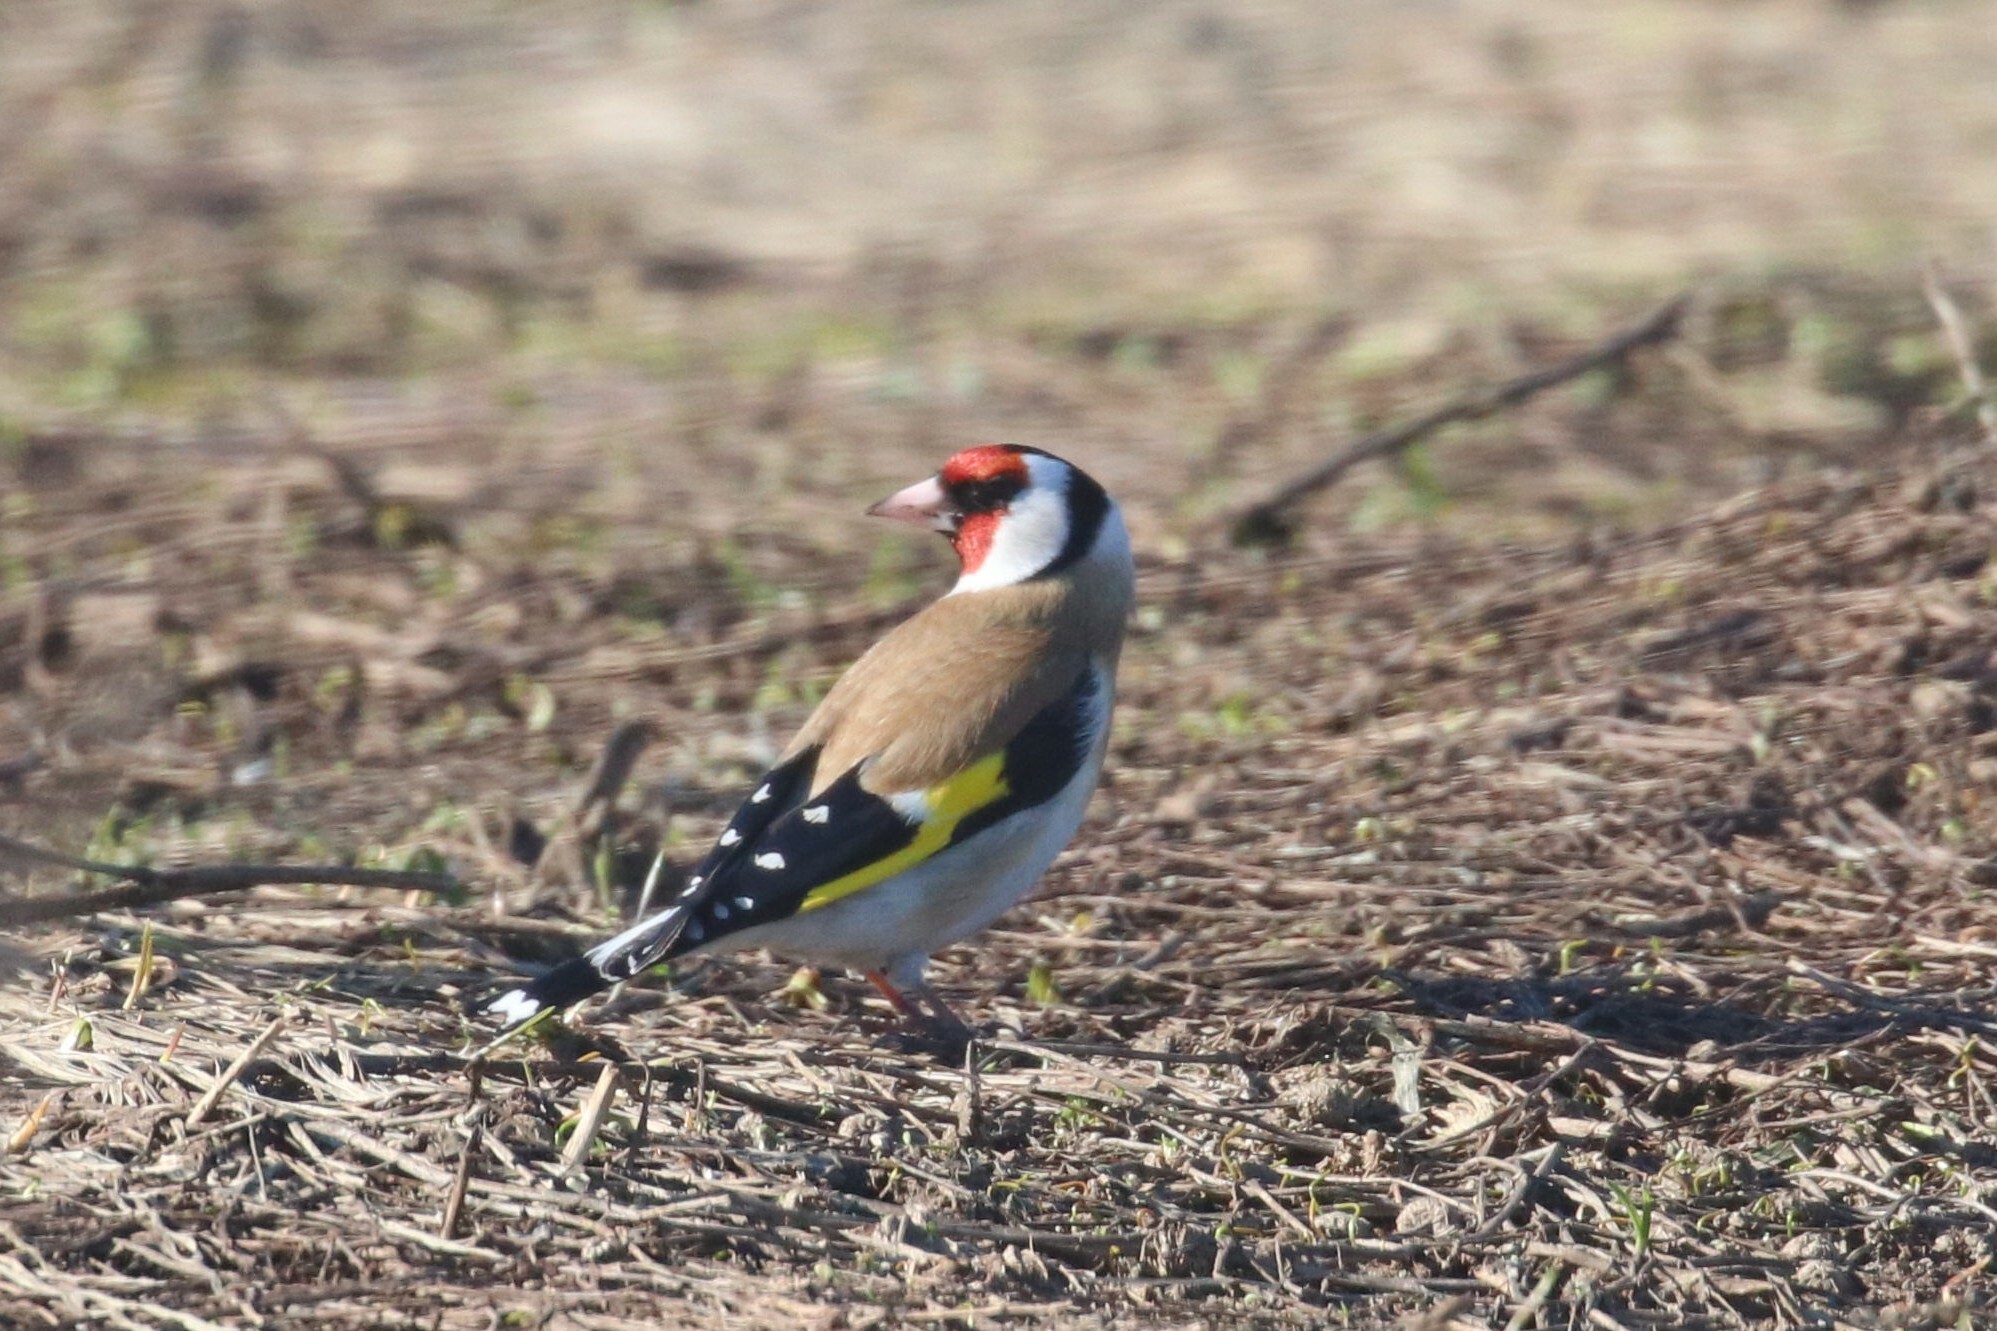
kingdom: Animalia
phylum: Chordata
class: Aves
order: Passeriformes
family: Fringillidae
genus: Carduelis
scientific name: Carduelis carduelis
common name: European goldfinch
